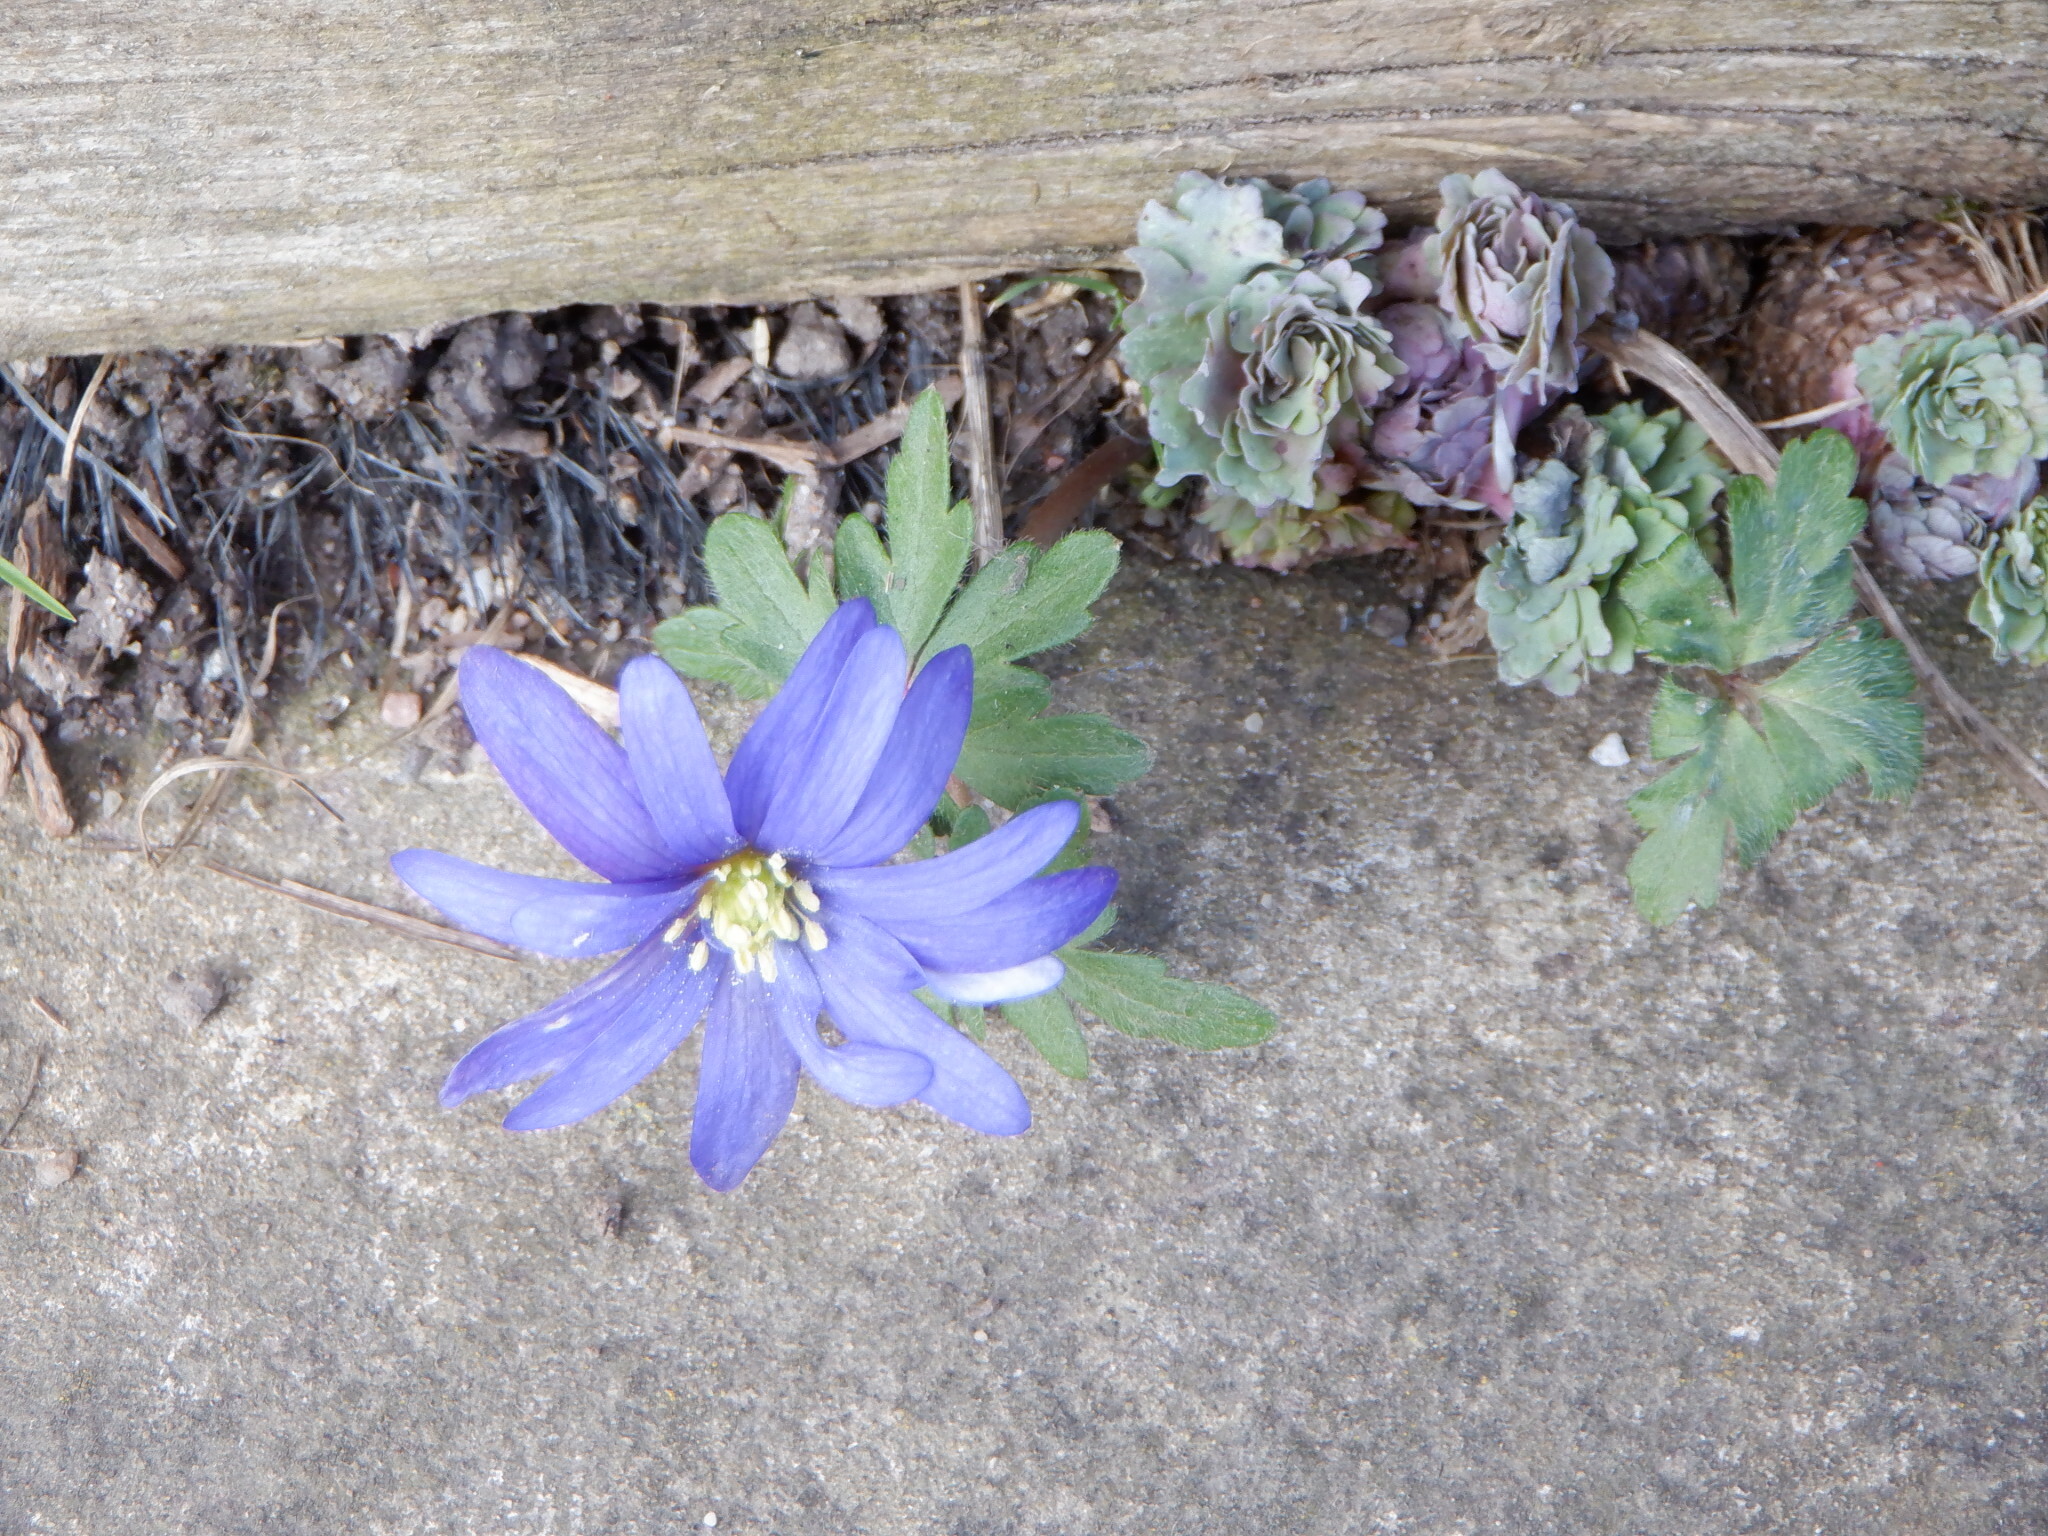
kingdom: Plantae
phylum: Tracheophyta
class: Magnoliopsida
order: Ranunculales
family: Ranunculaceae
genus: Anemone
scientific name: Anemone blanda
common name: Balkan anemone
